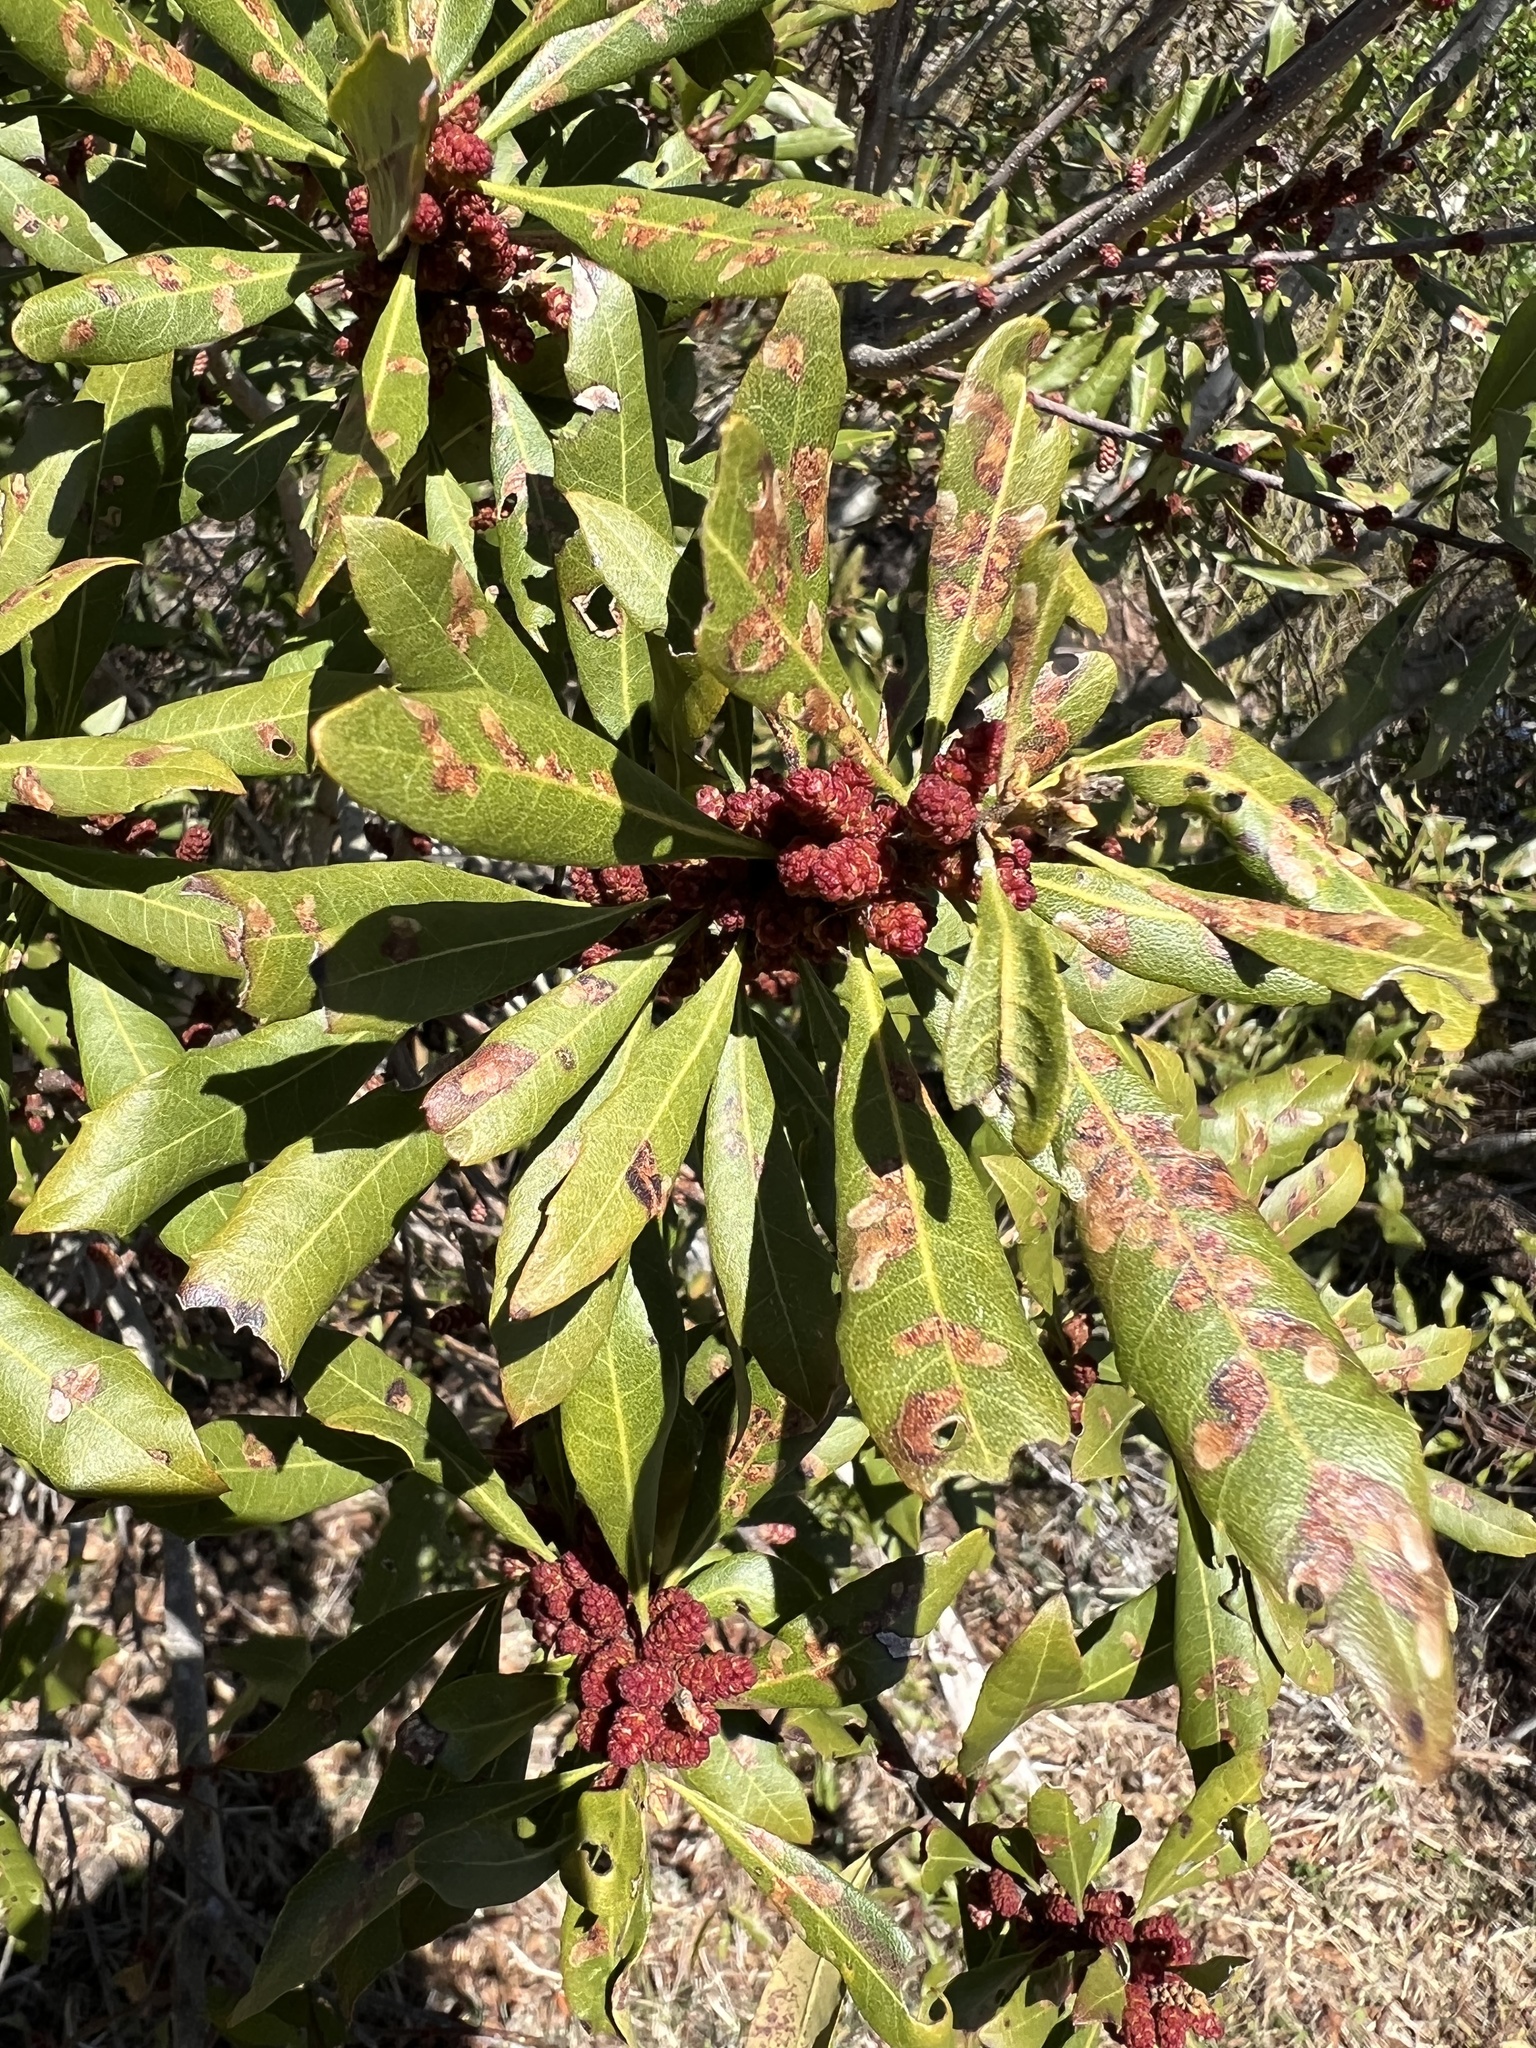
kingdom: Plantae
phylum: Tracheophyta
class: Magnoliopsida
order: Fagales
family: Myricaceae
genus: Morella
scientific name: Morella cerifera
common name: Wax myrtle
